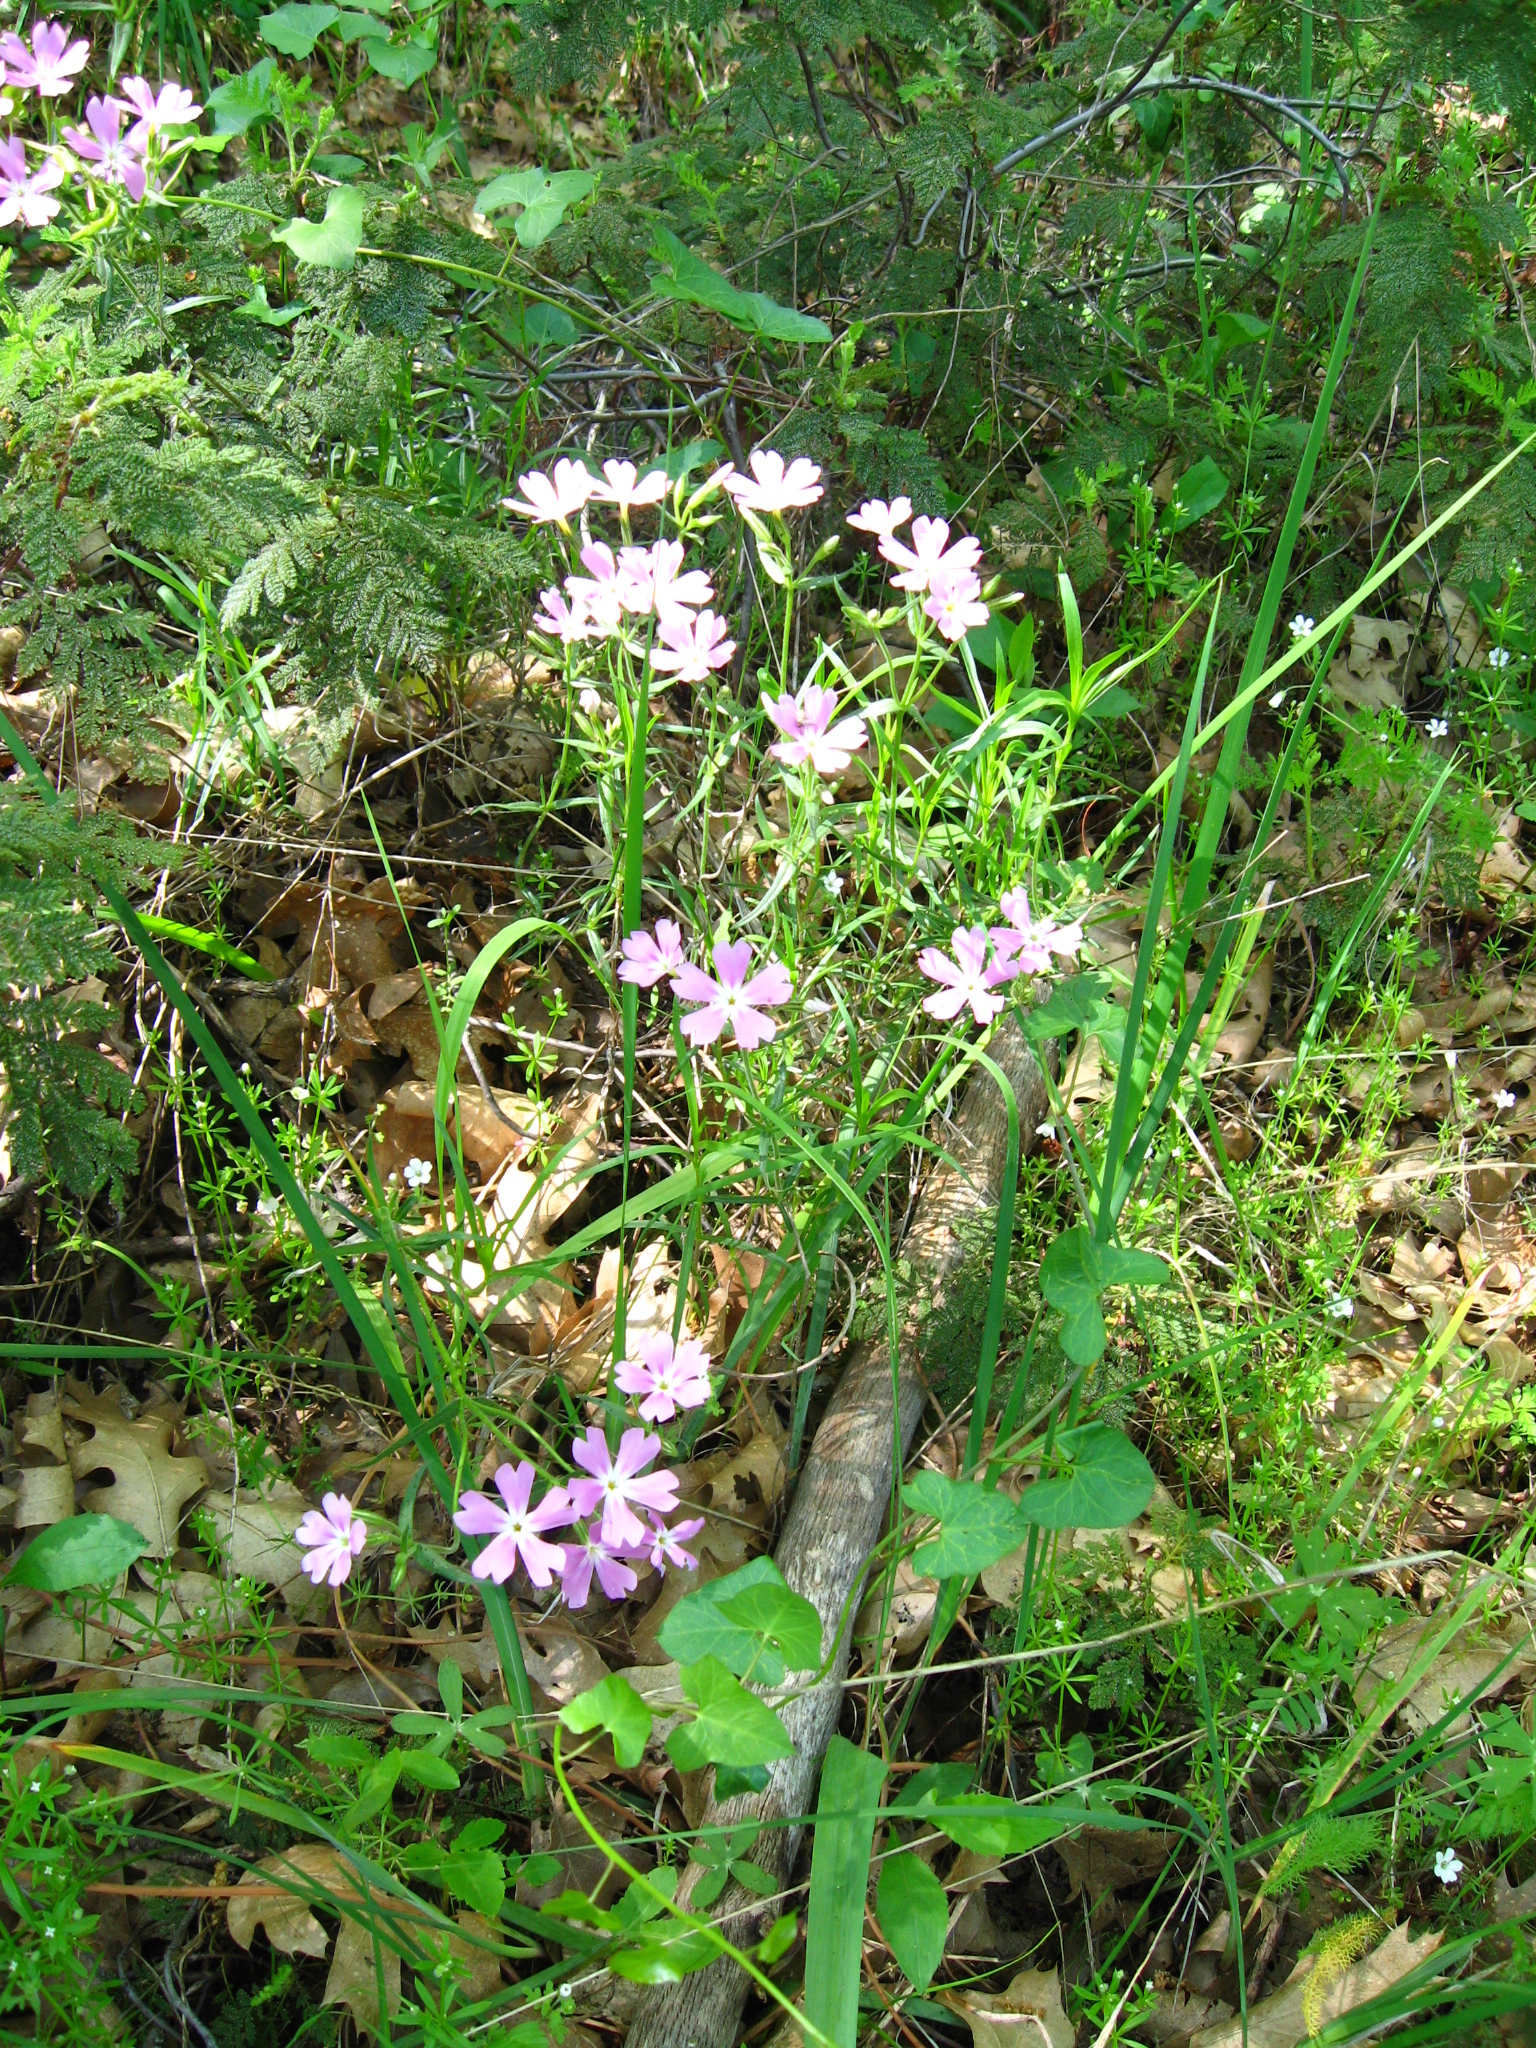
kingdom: Plantae
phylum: Tracheophyta
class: Magnoliopsida
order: Ericales
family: Polemoniaceae
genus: Phlox
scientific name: Phlox speciosa
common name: Bush phlox
